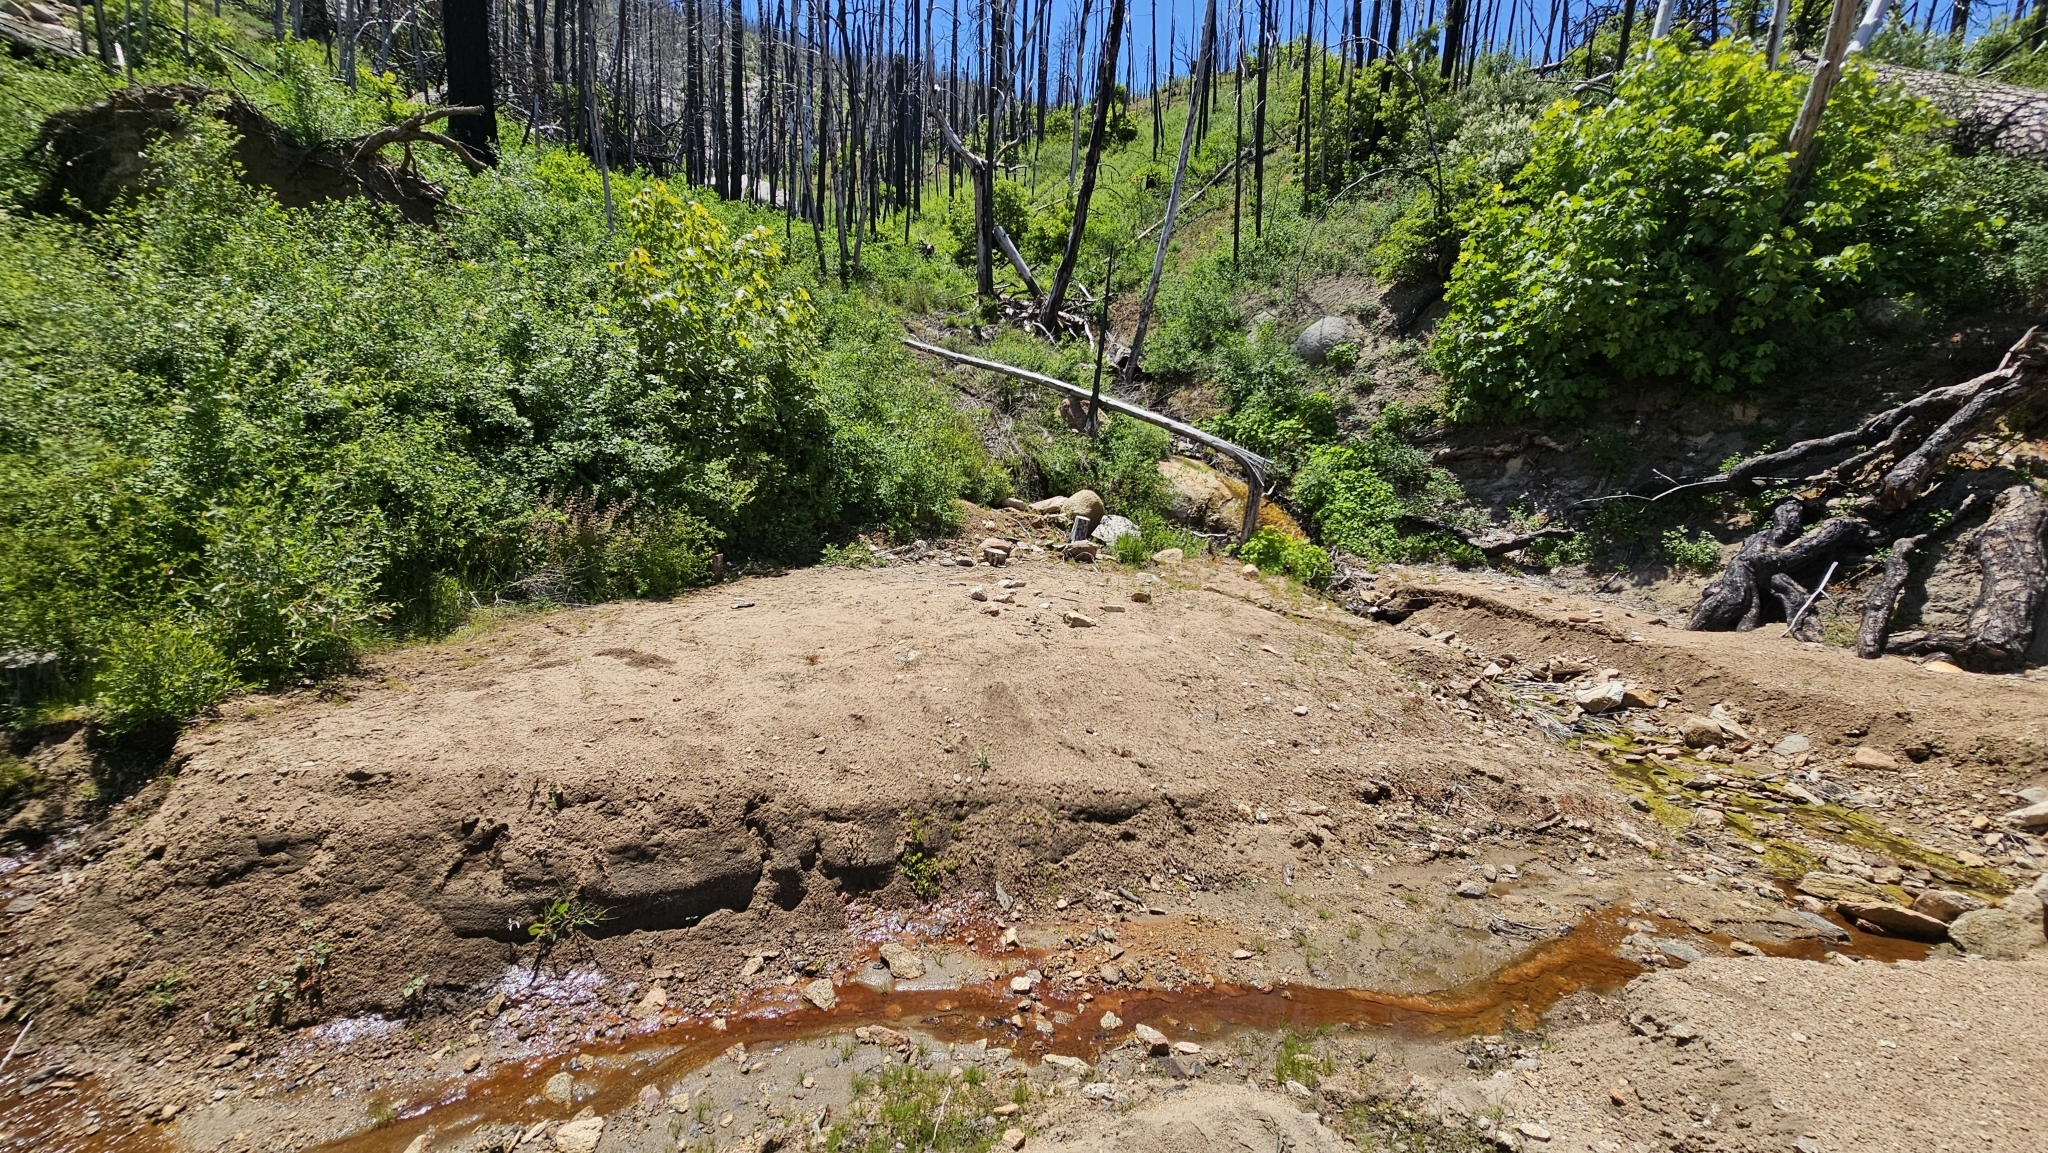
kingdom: Plantae
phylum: Tracheophyta
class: Magnoliopsida
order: Lamiales
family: Phrymaceae
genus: Erythranthe
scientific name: Erythranthe acutidens
